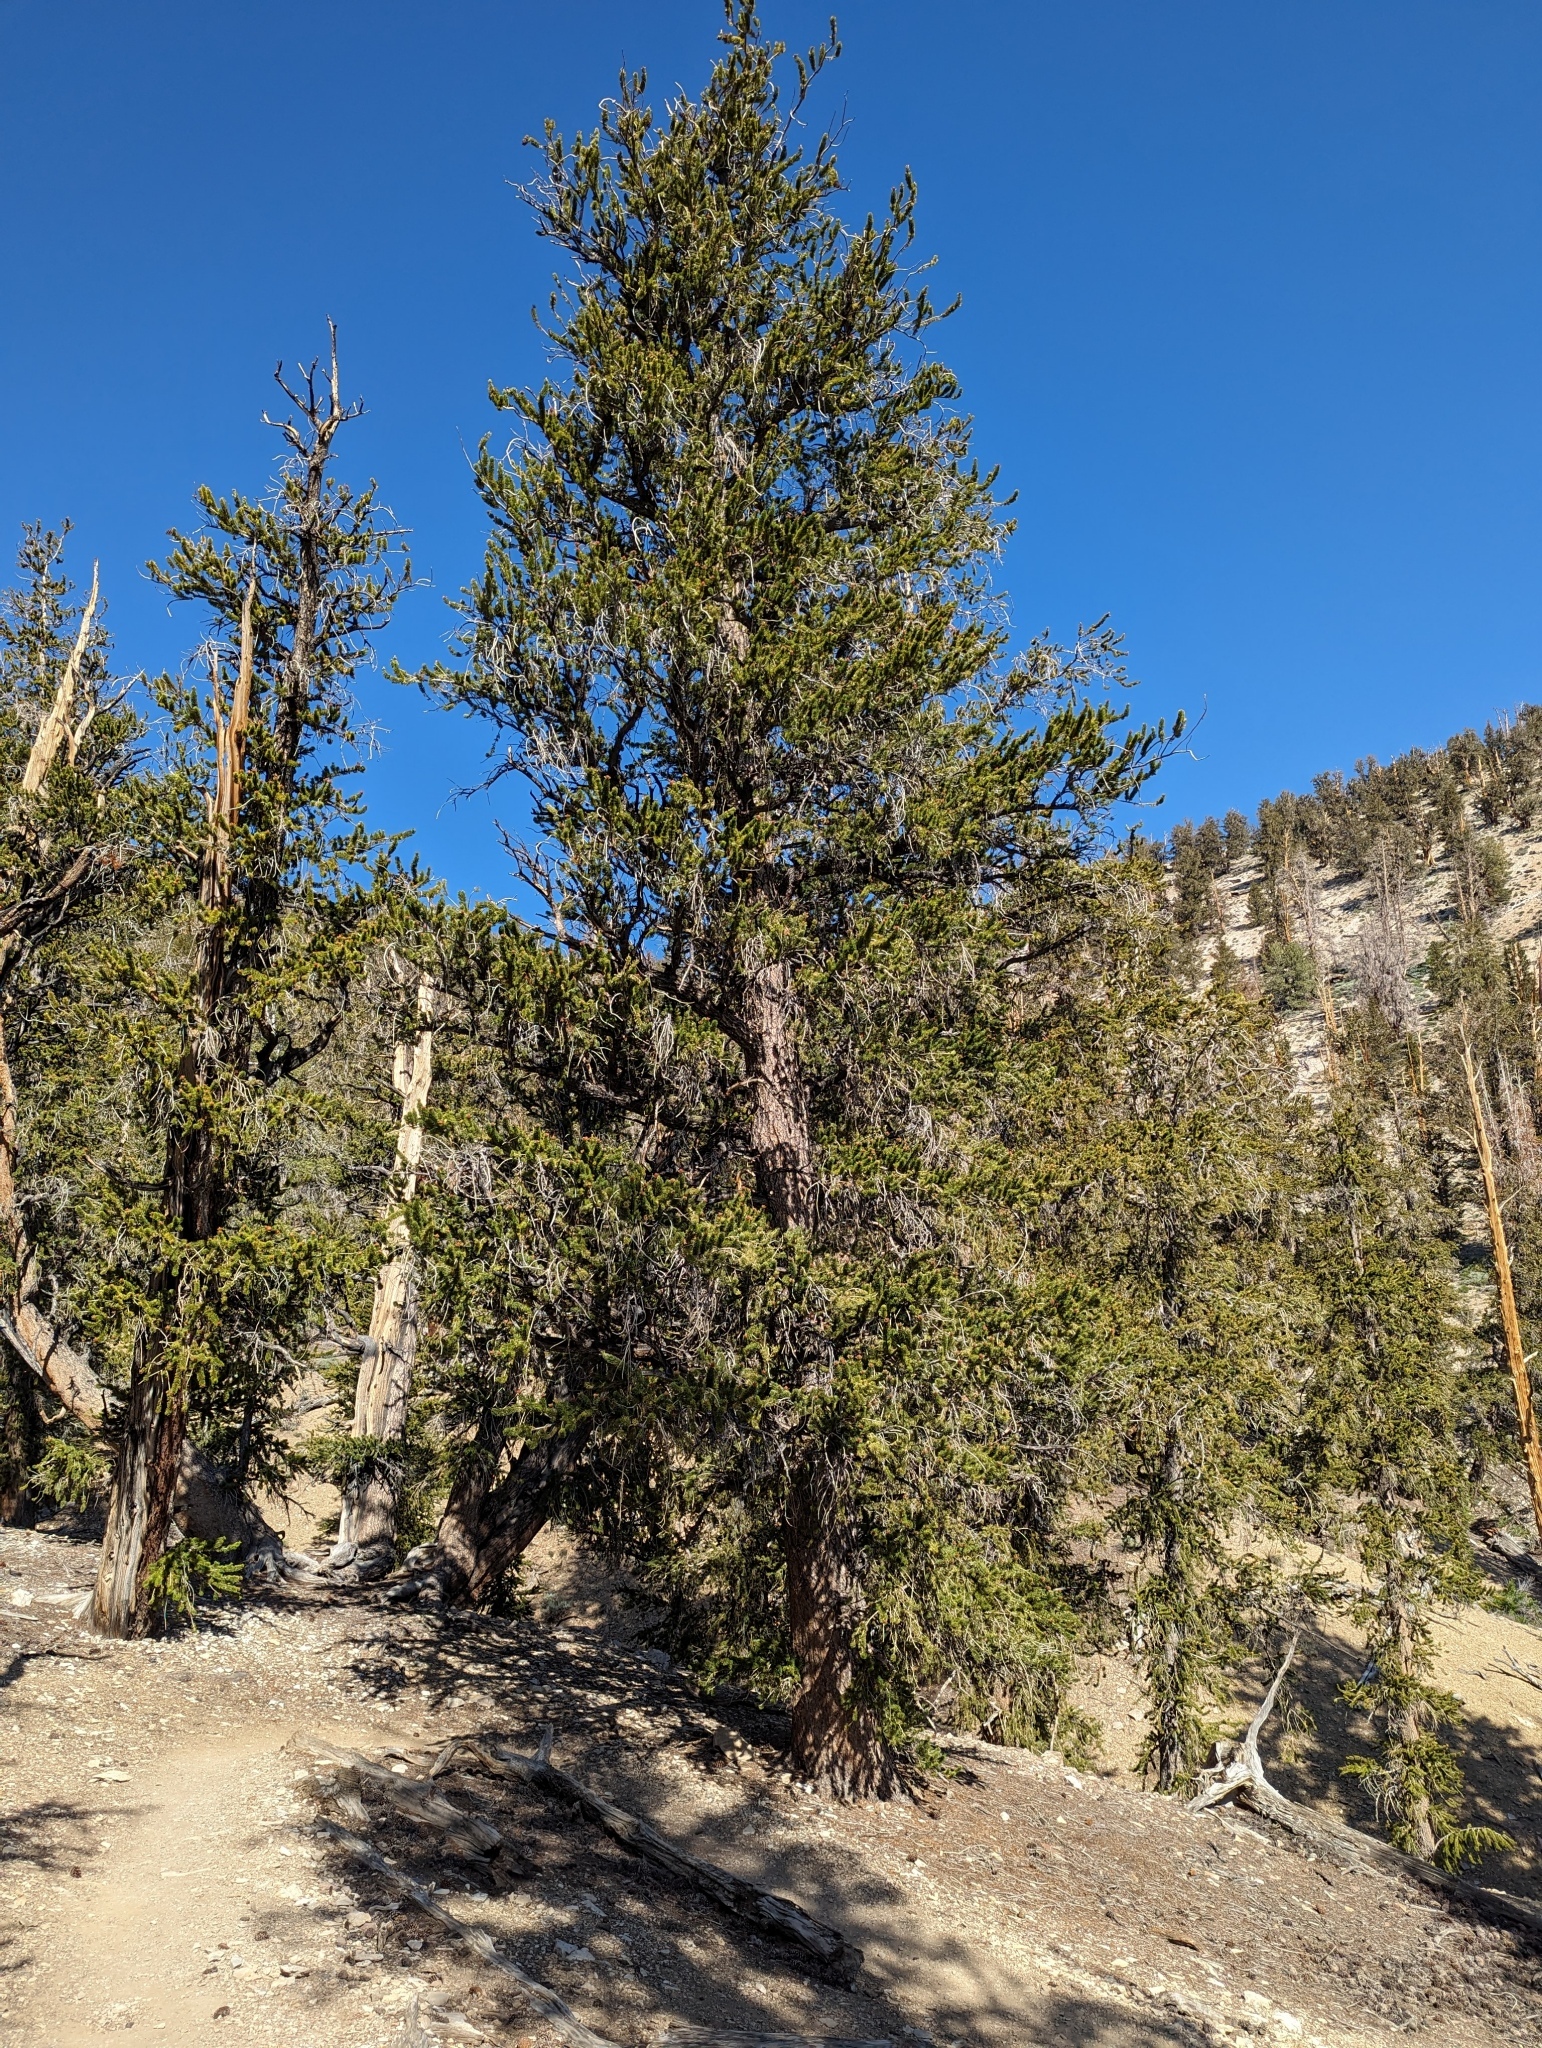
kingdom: Plantae
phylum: Tracheophyta
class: Pinopsida
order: Pinales
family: Pinaceae
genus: Pinus
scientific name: Pinus longaeva
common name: Intermountain bristlecone pine
